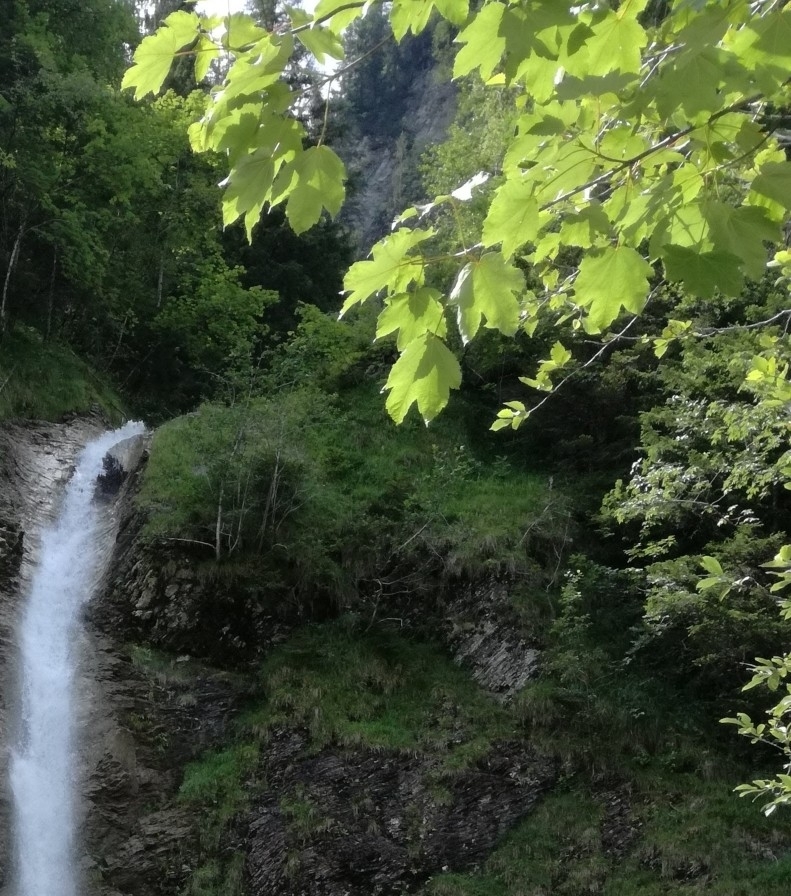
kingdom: Plantae
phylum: Tracheophyta
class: Magnoliopsida
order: Sapindales
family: Sapindaceae
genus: Acer
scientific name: Acer pseudoplatanus
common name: Sycamore
